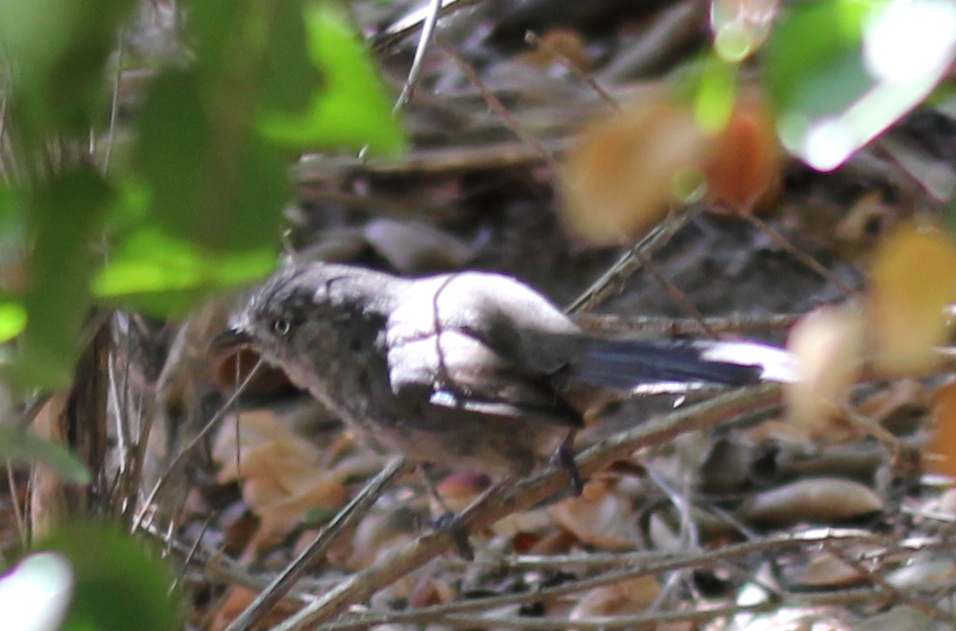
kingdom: Animalia
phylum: Chordata
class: Aves
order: Passeriformes
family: Sylviidae
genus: Chamaea
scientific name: Chamaea fasciata
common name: Wrentit
